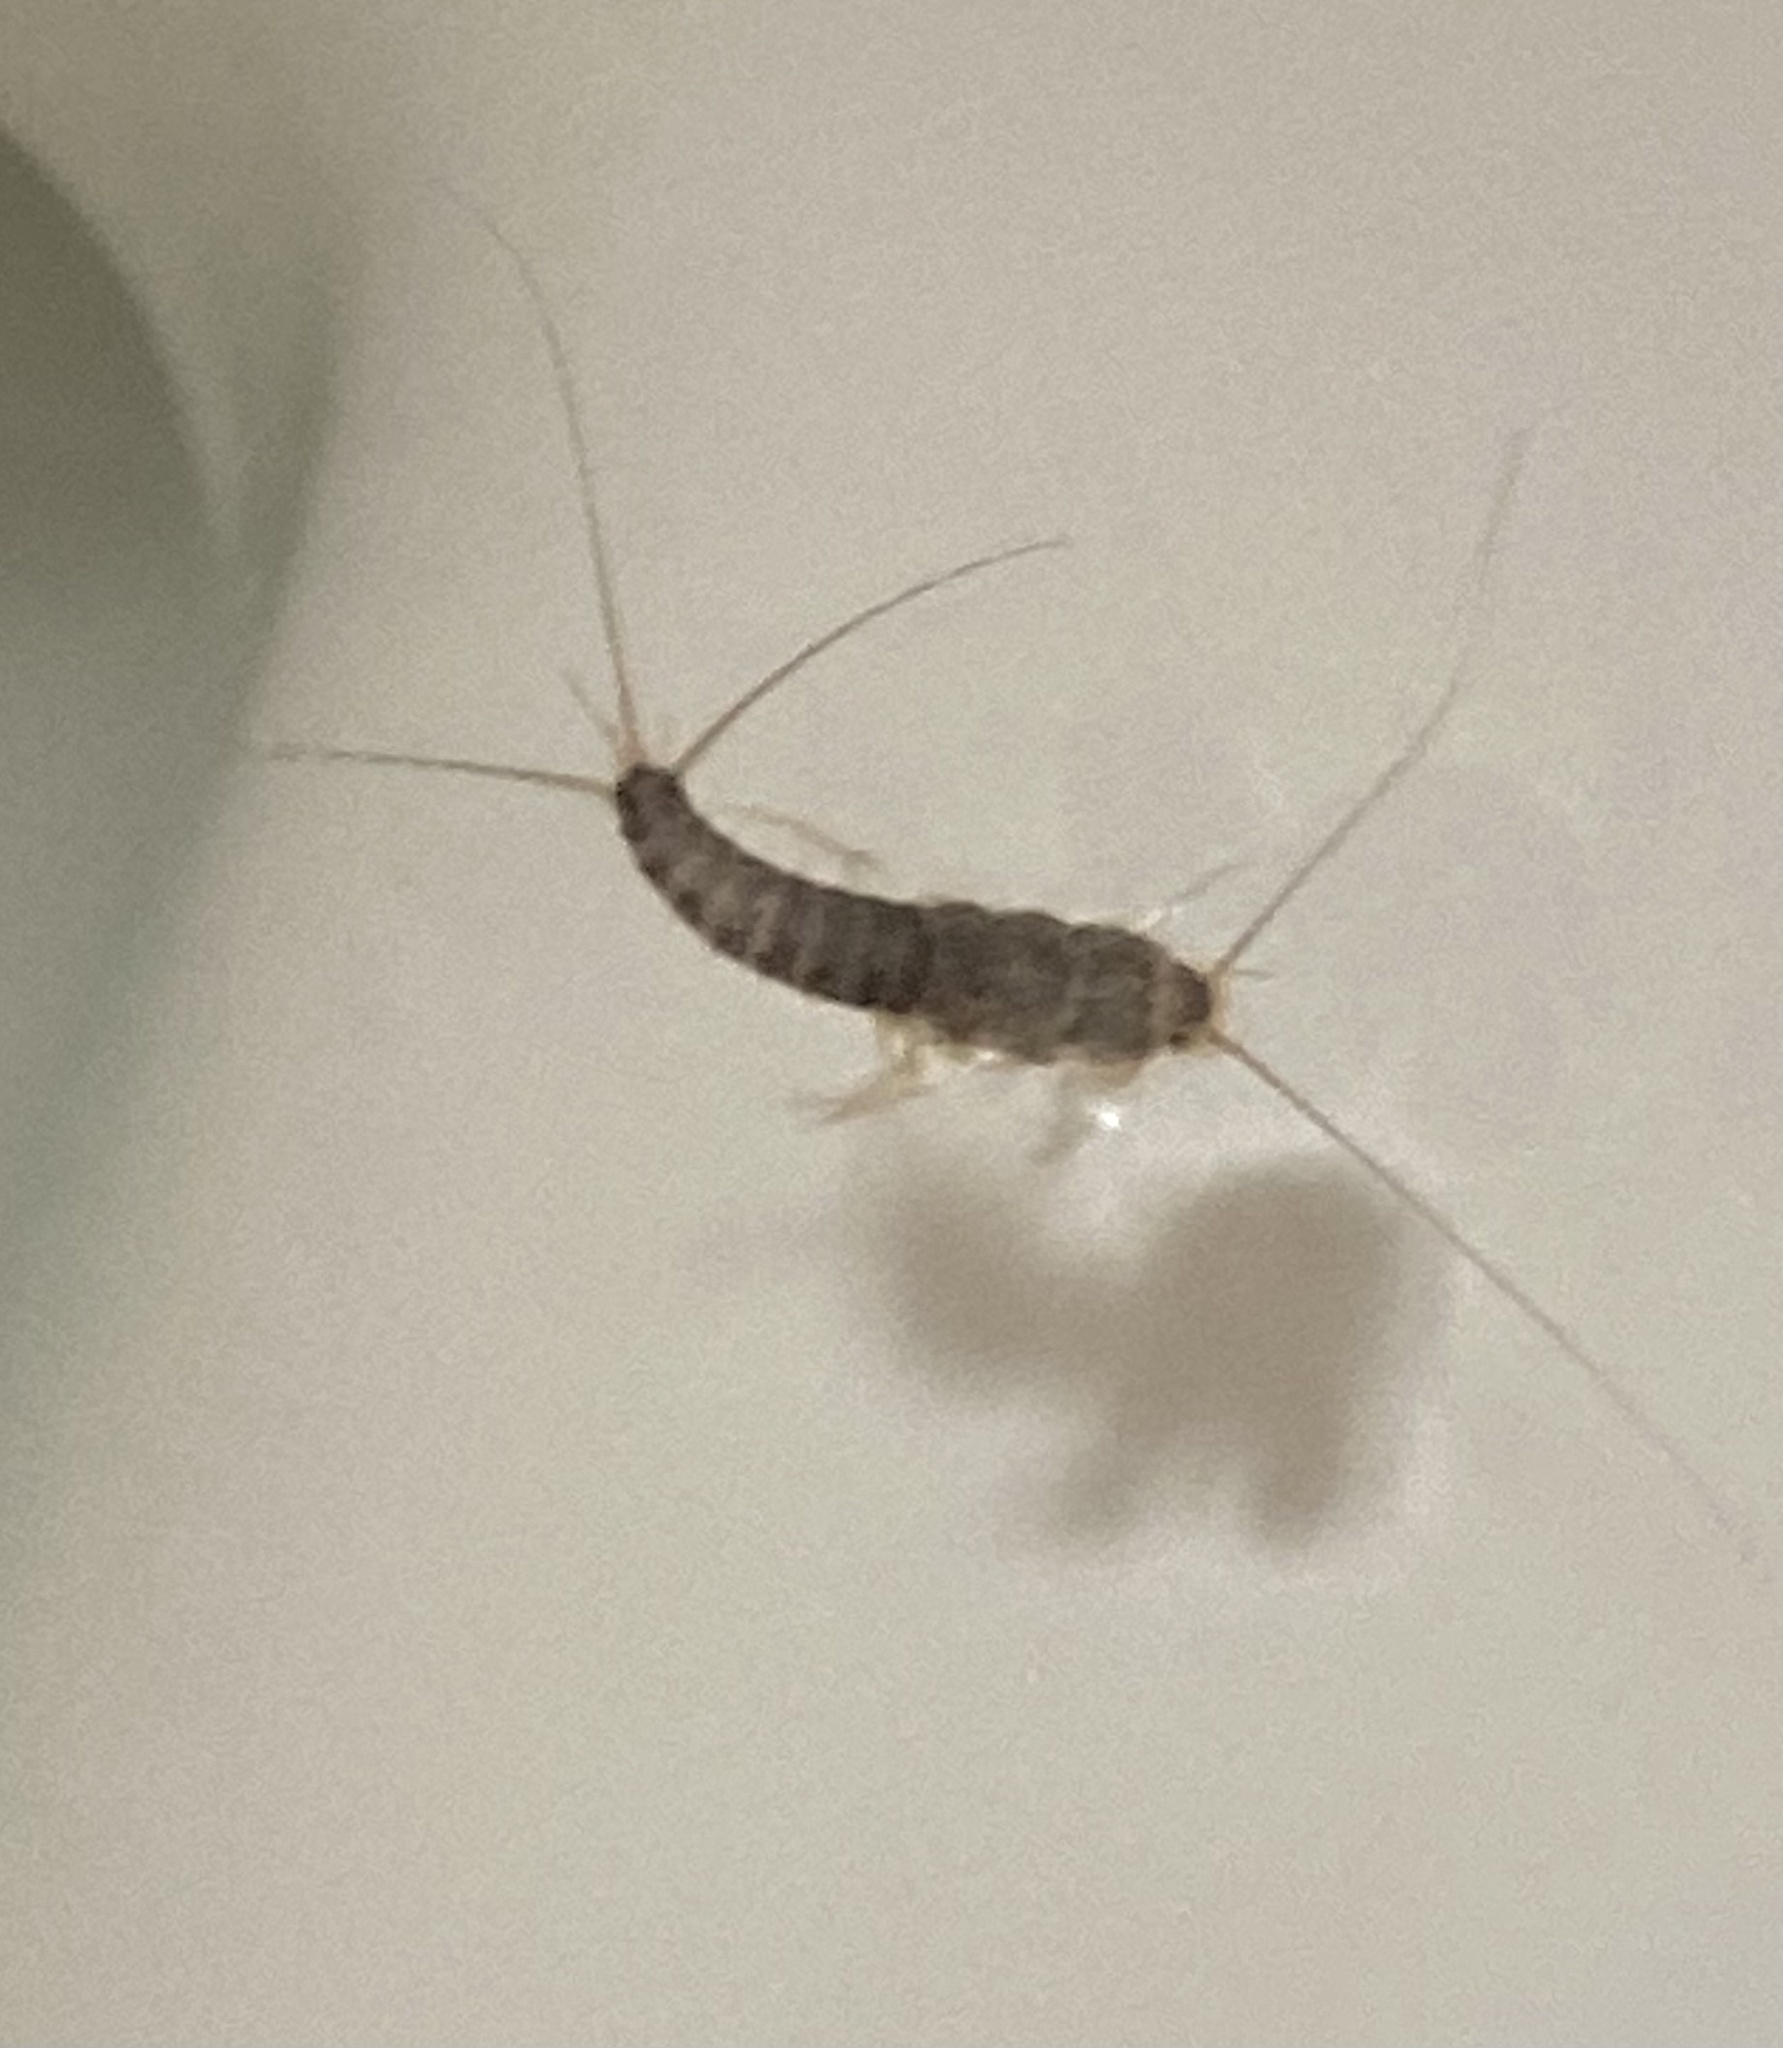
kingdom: Animalia
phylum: Arthropoda
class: Insecta
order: Zygentoma
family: Lepismatidae
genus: Ctenolepisma
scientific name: Ctenolepisma longicaudatum
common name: Silverfish
